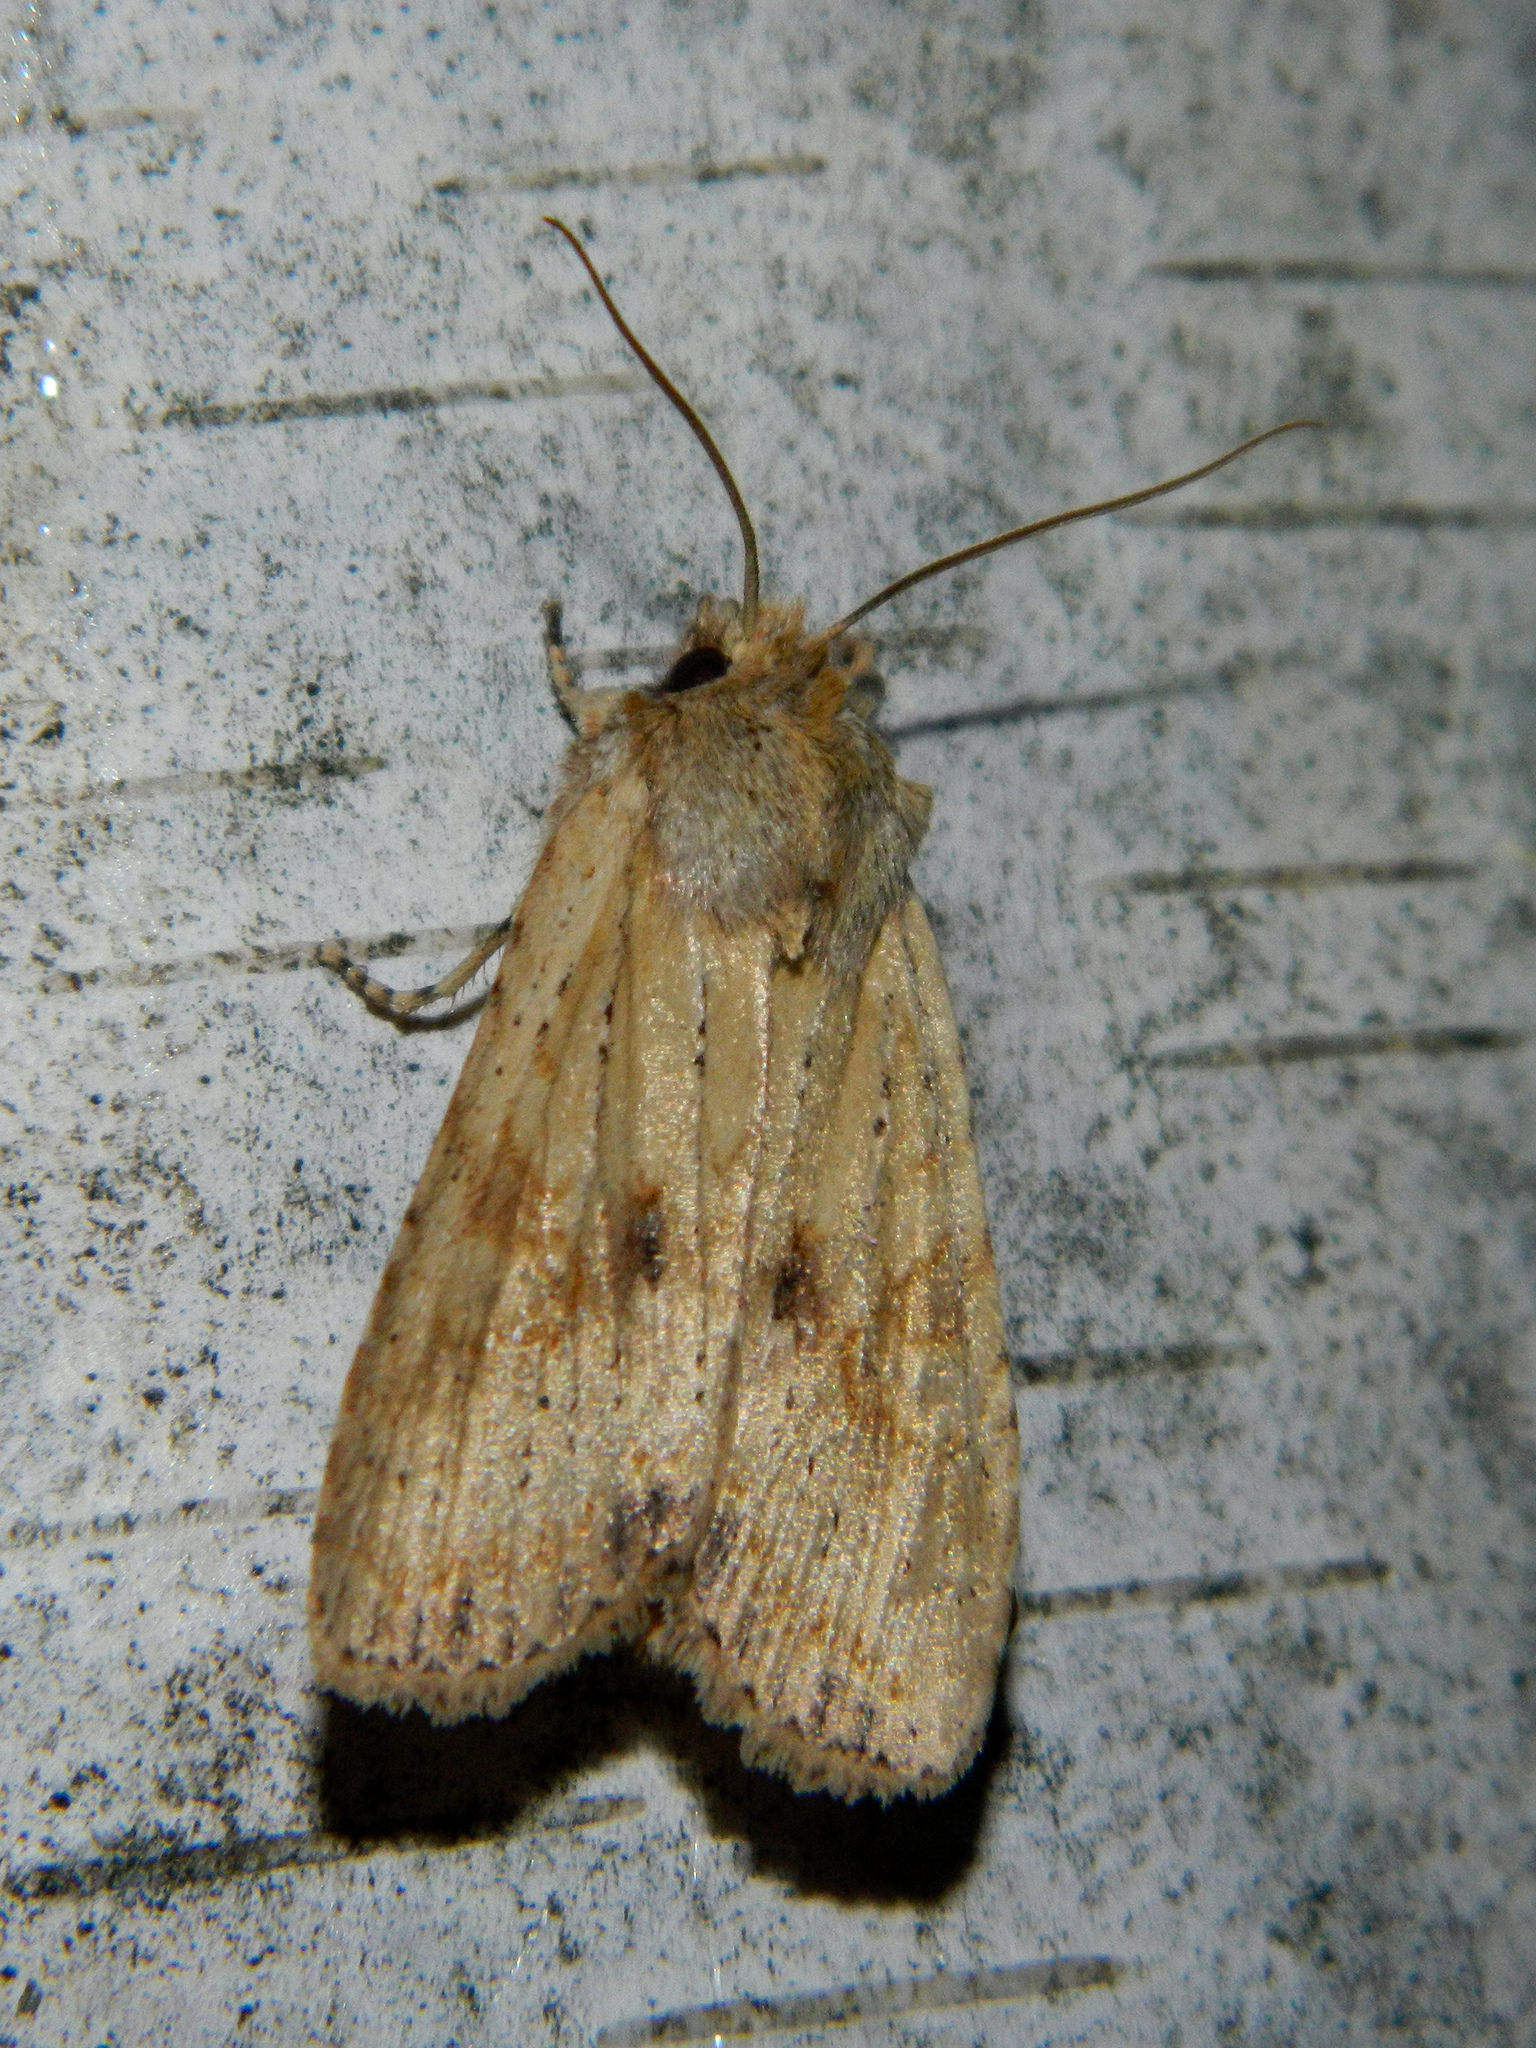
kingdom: Animalia
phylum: Arthropoda
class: Insecta
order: Lepidoptera
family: Noctuidae
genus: Lithophane
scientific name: Lithophane innominata
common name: Nameless pinion moth
